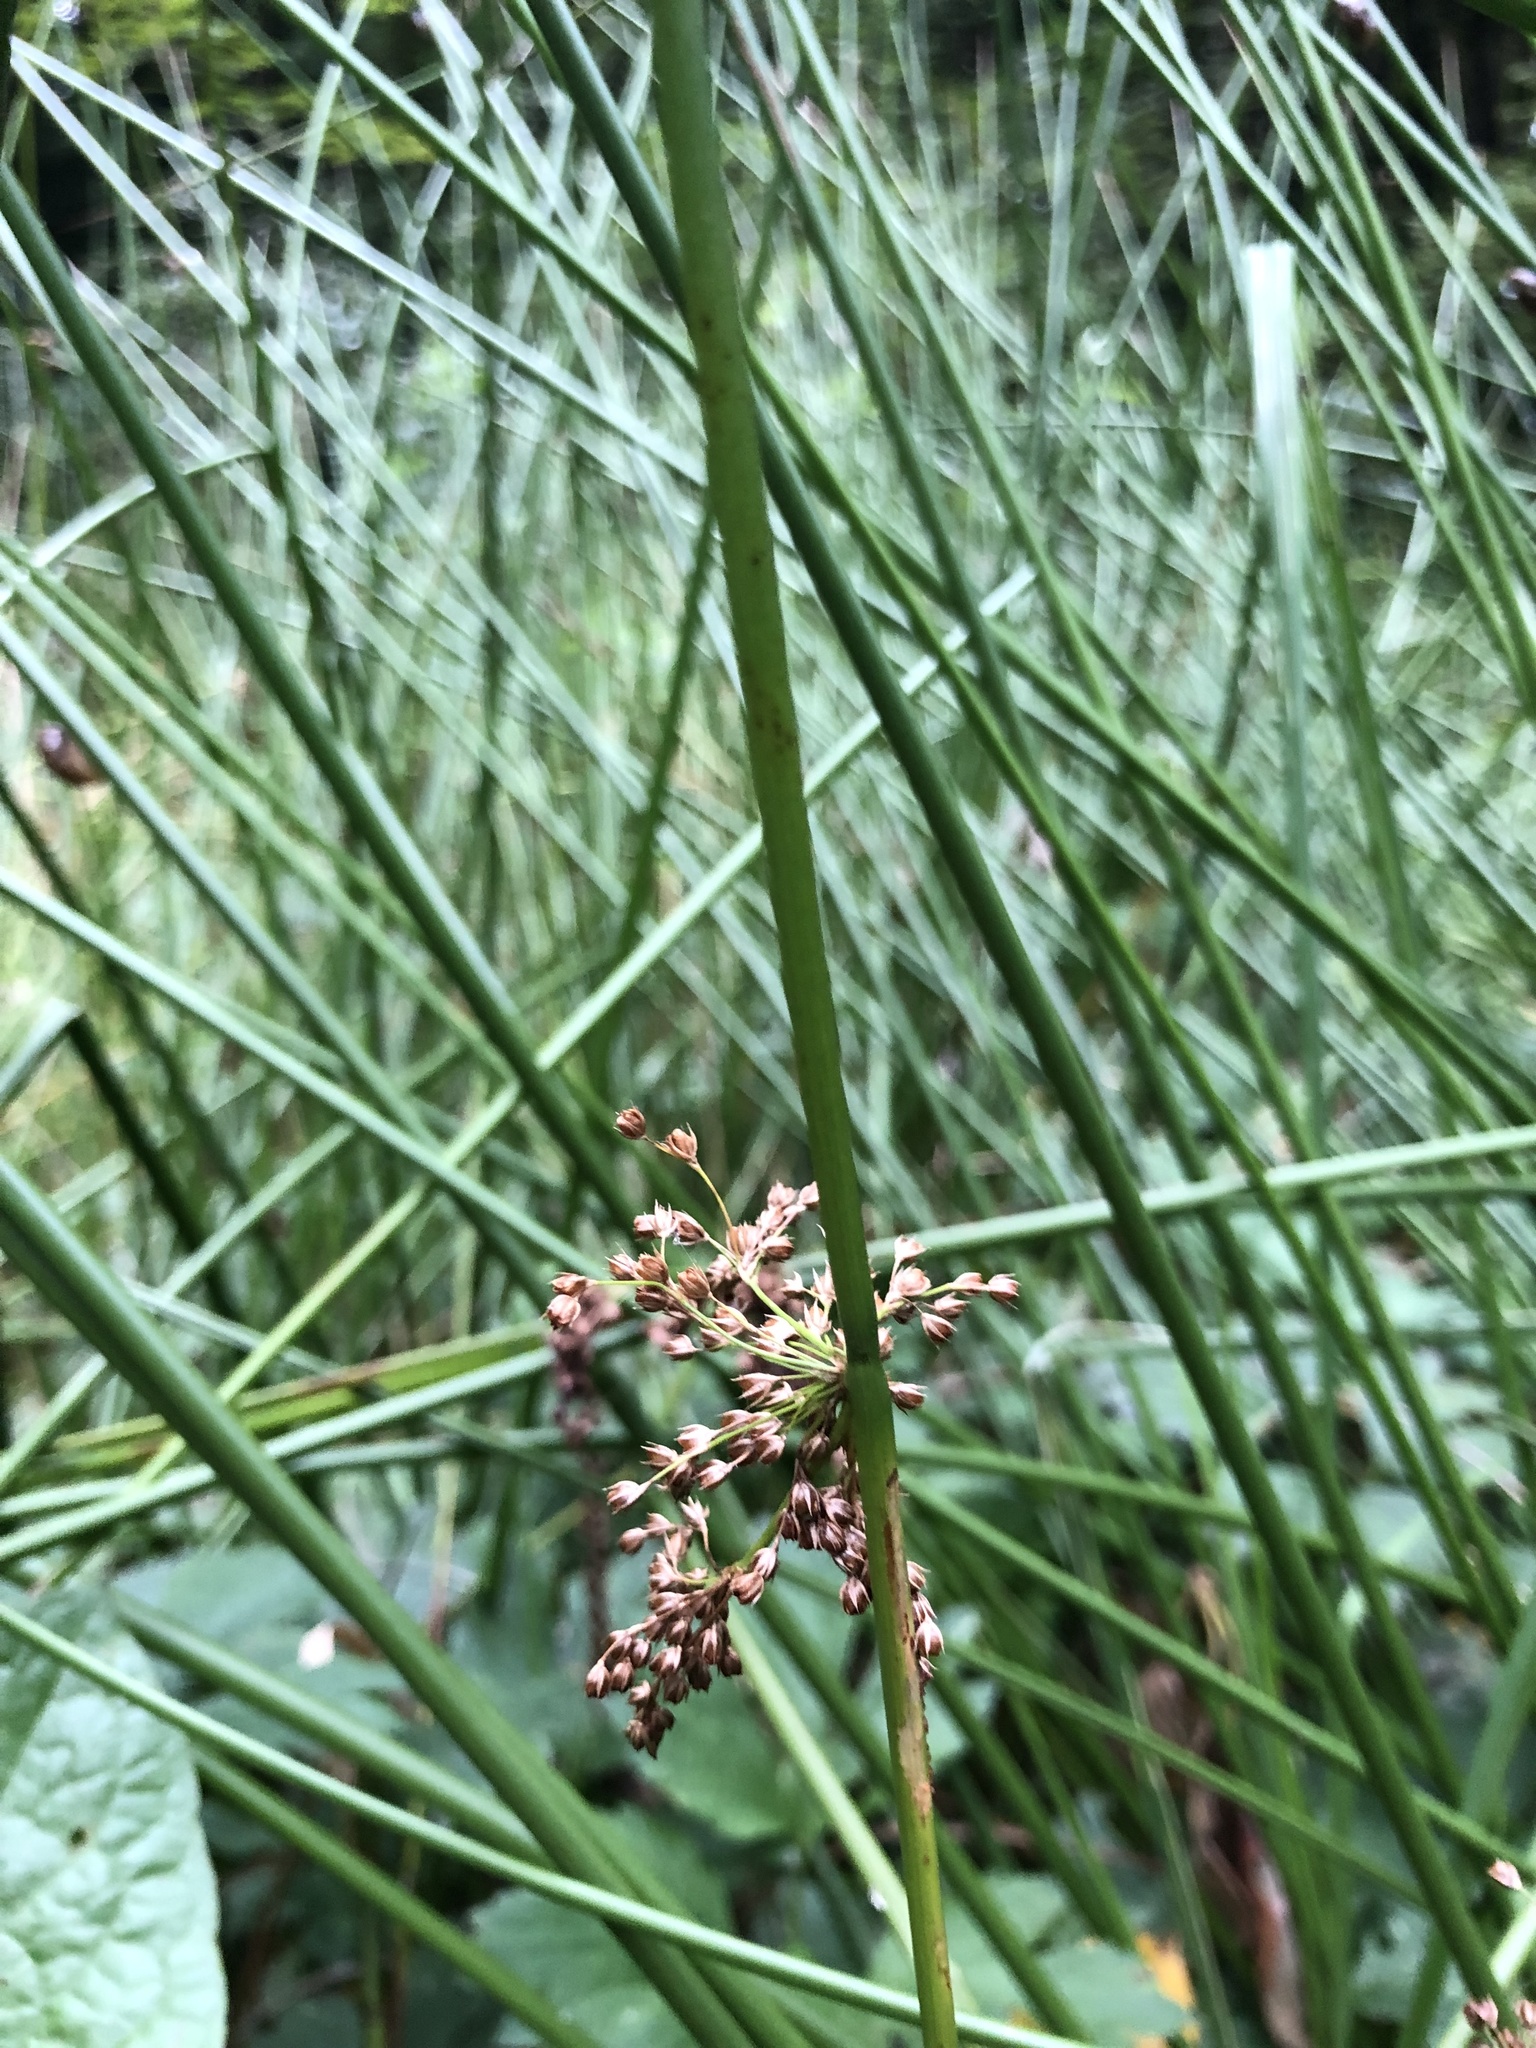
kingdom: Plantae
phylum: Tracheophyta
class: Liliopsida
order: Poales
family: Juncaceae
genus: Juncus
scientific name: Juncus effusus
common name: Soft rush
